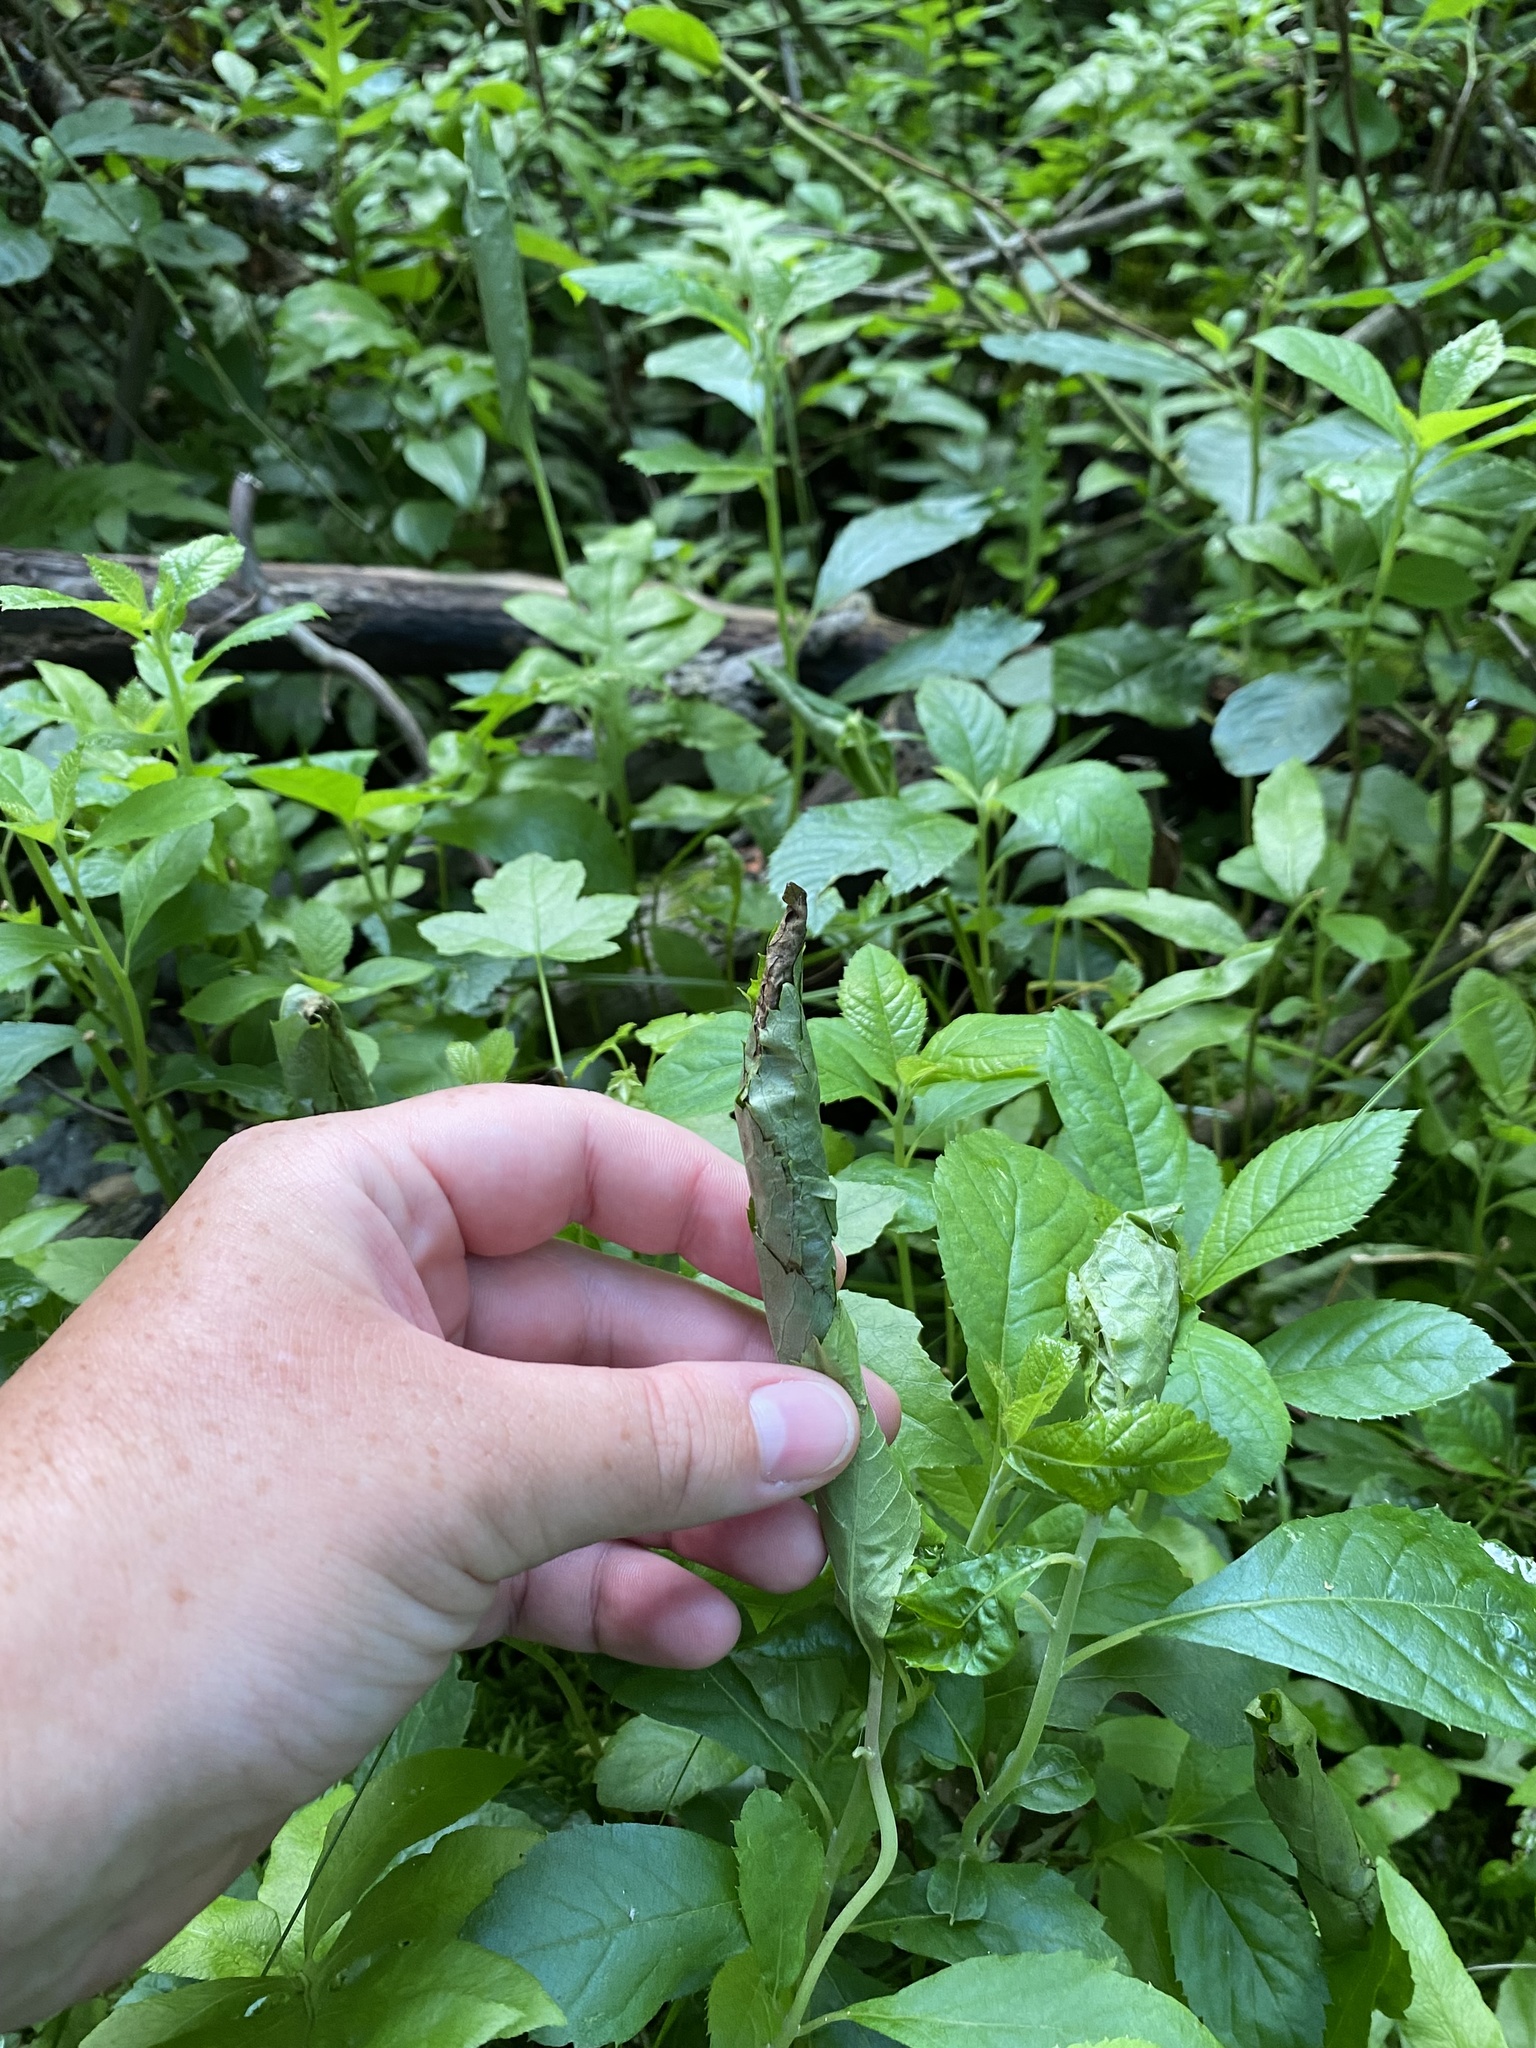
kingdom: Animalia
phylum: Arthropoda
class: Insecta
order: Lepidoptera
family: Crambidae
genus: Herpetogramma
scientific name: Herpetogramma pertextalis
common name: Bold-feathered grass moth
